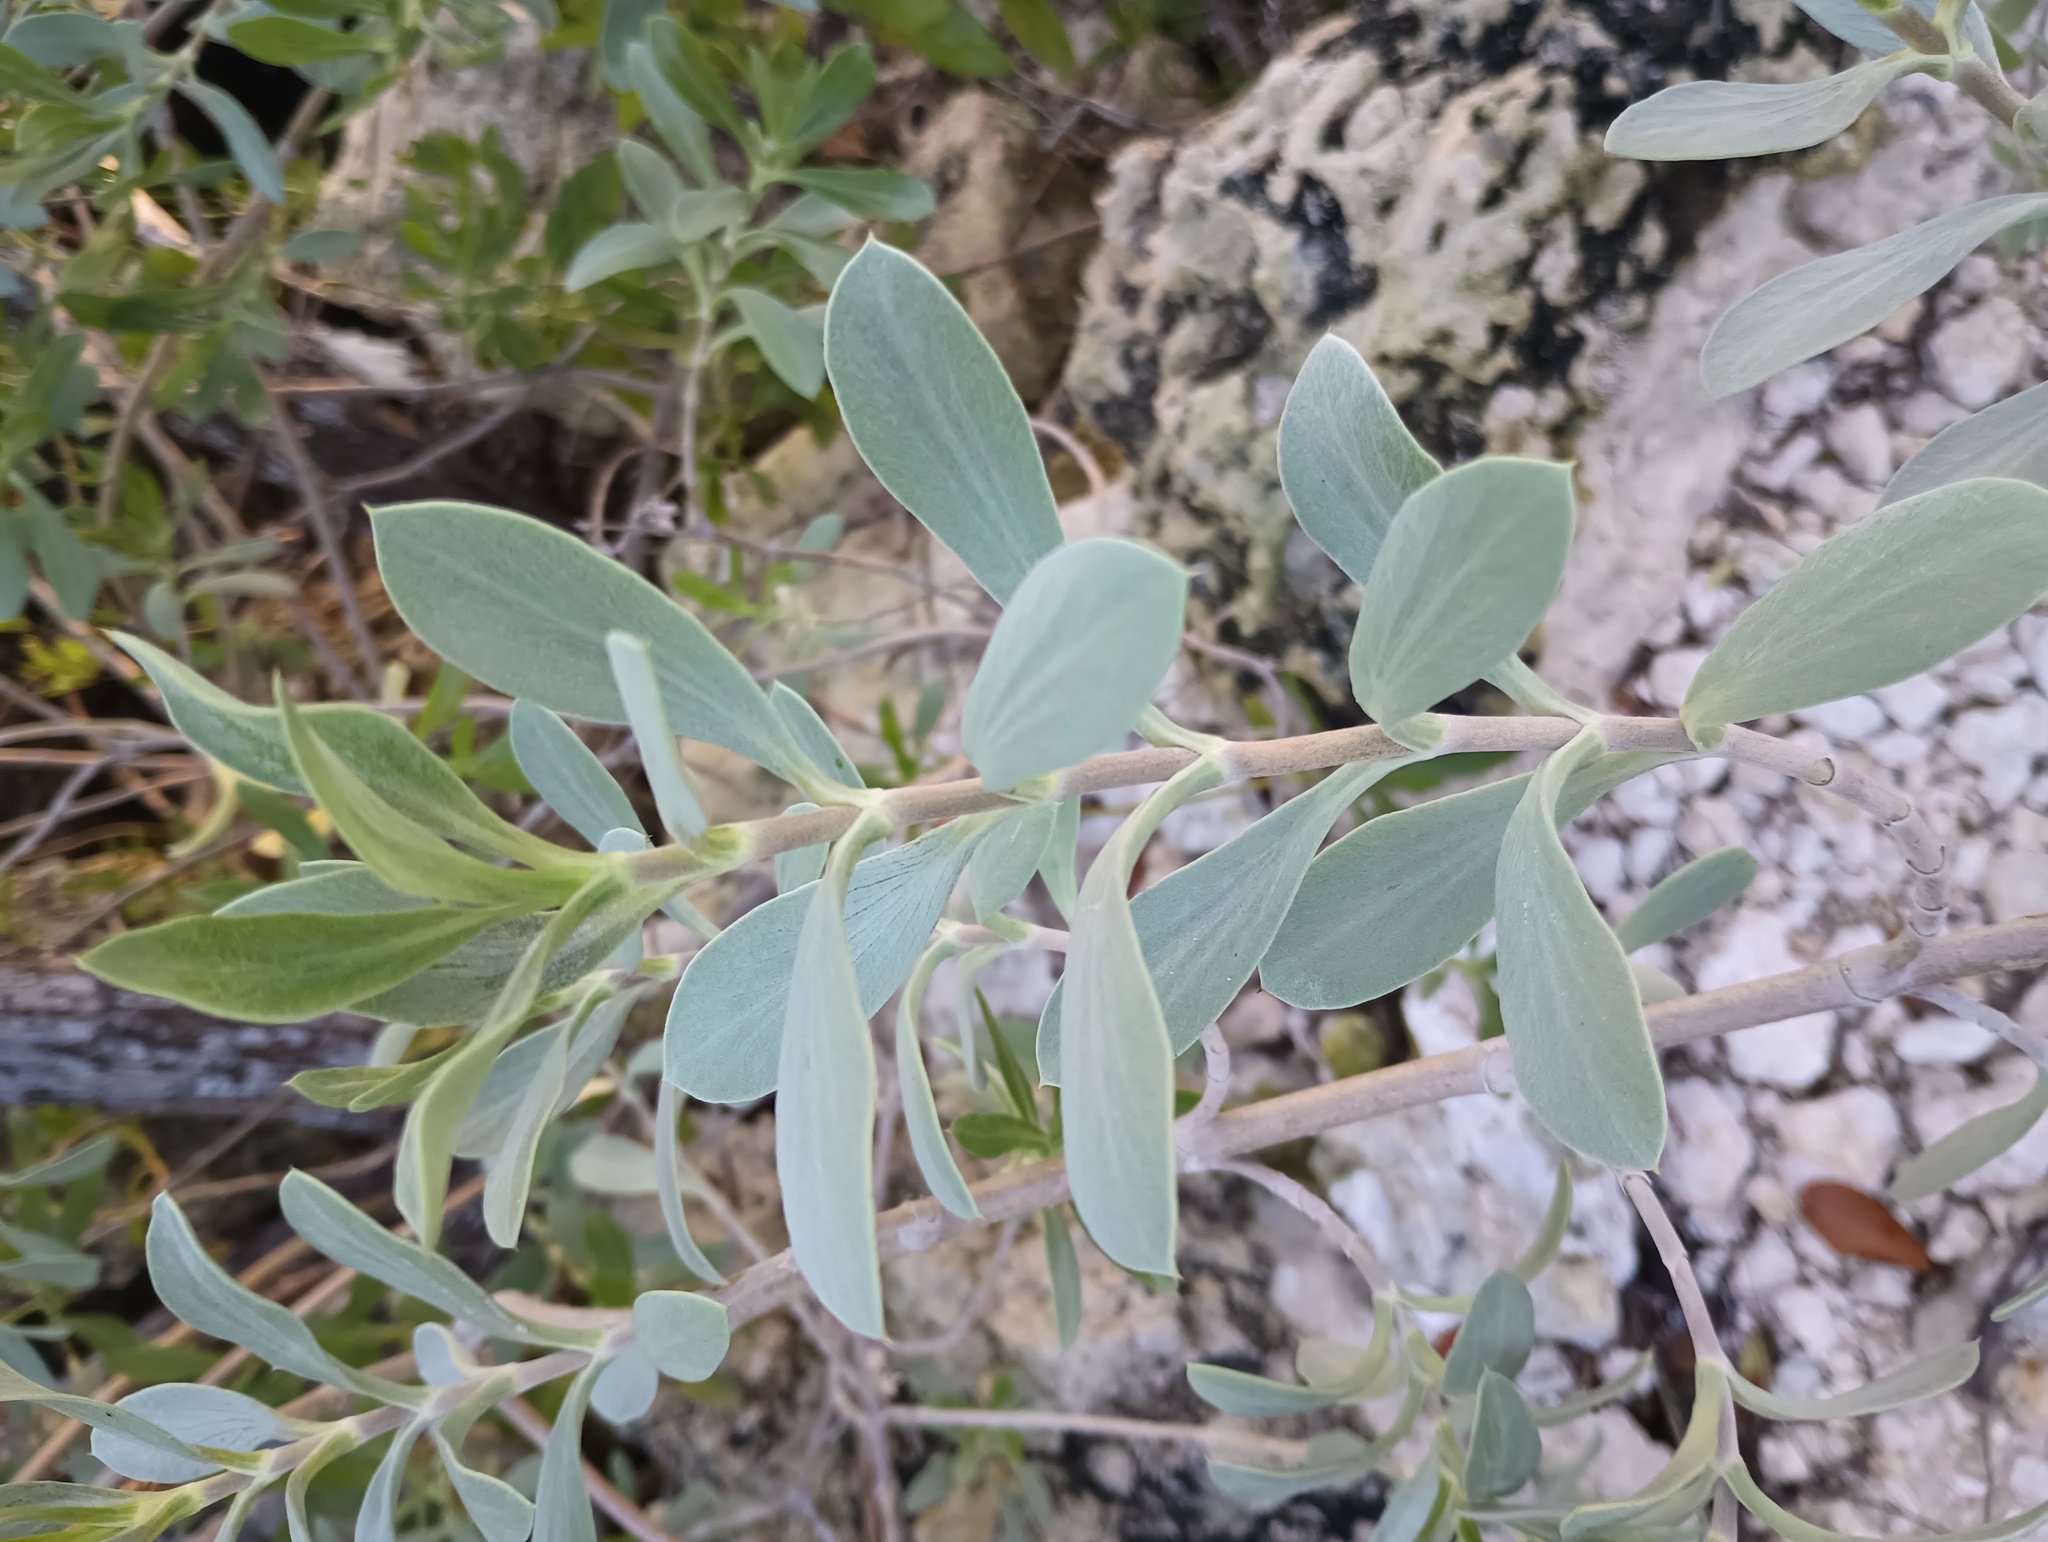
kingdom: Plantae
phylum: Tracheophyta
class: Magnoliopsida
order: Asterales
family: Asteraceae
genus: Borrichia
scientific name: Borrichia frutescens
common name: Sea oxeye
